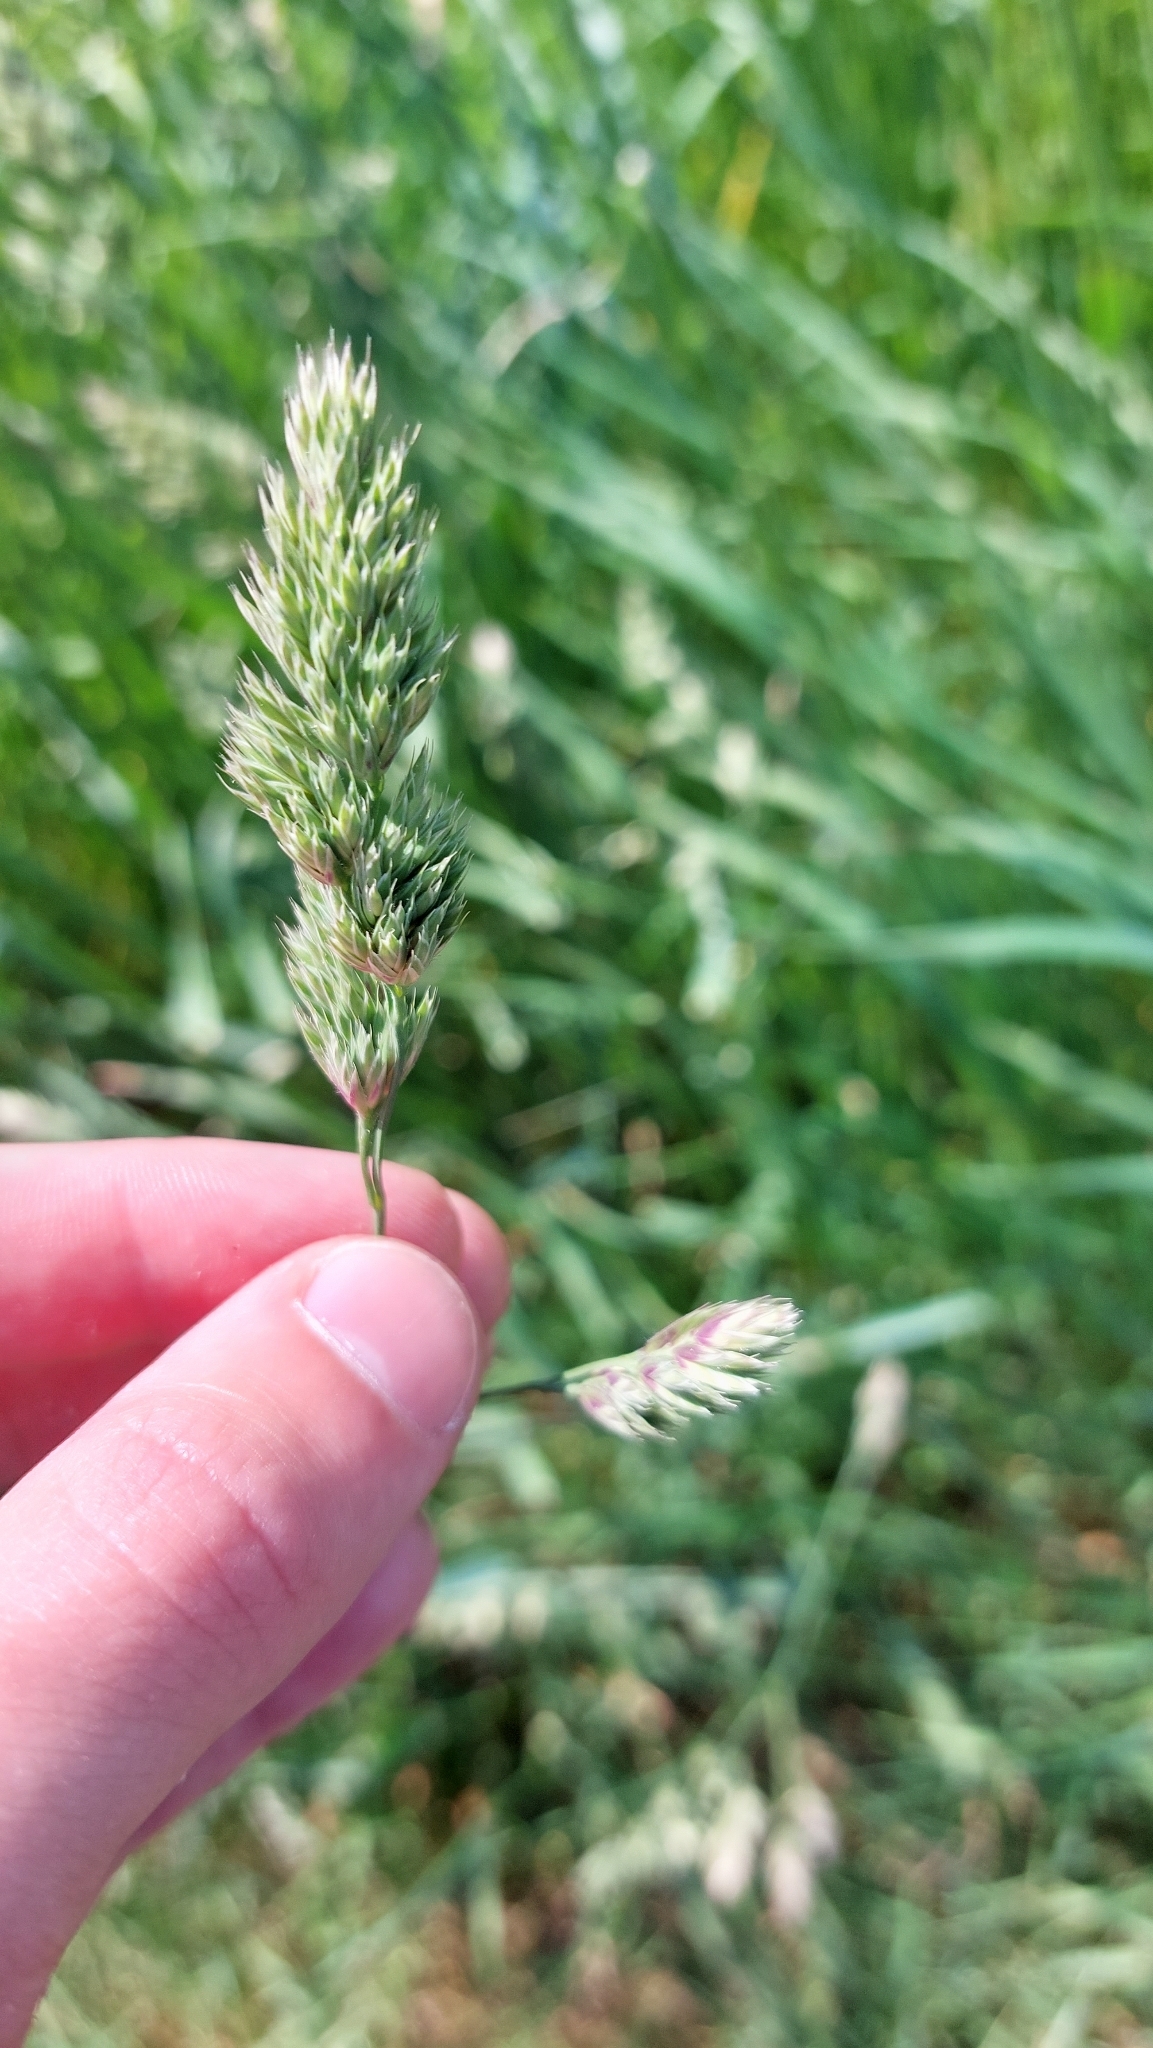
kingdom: Plantae
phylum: Tracheophyta
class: Liliopsida
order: Poales
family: Poaceae
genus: Dactylis
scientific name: Dactylis glomerata
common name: Orchardgrass
